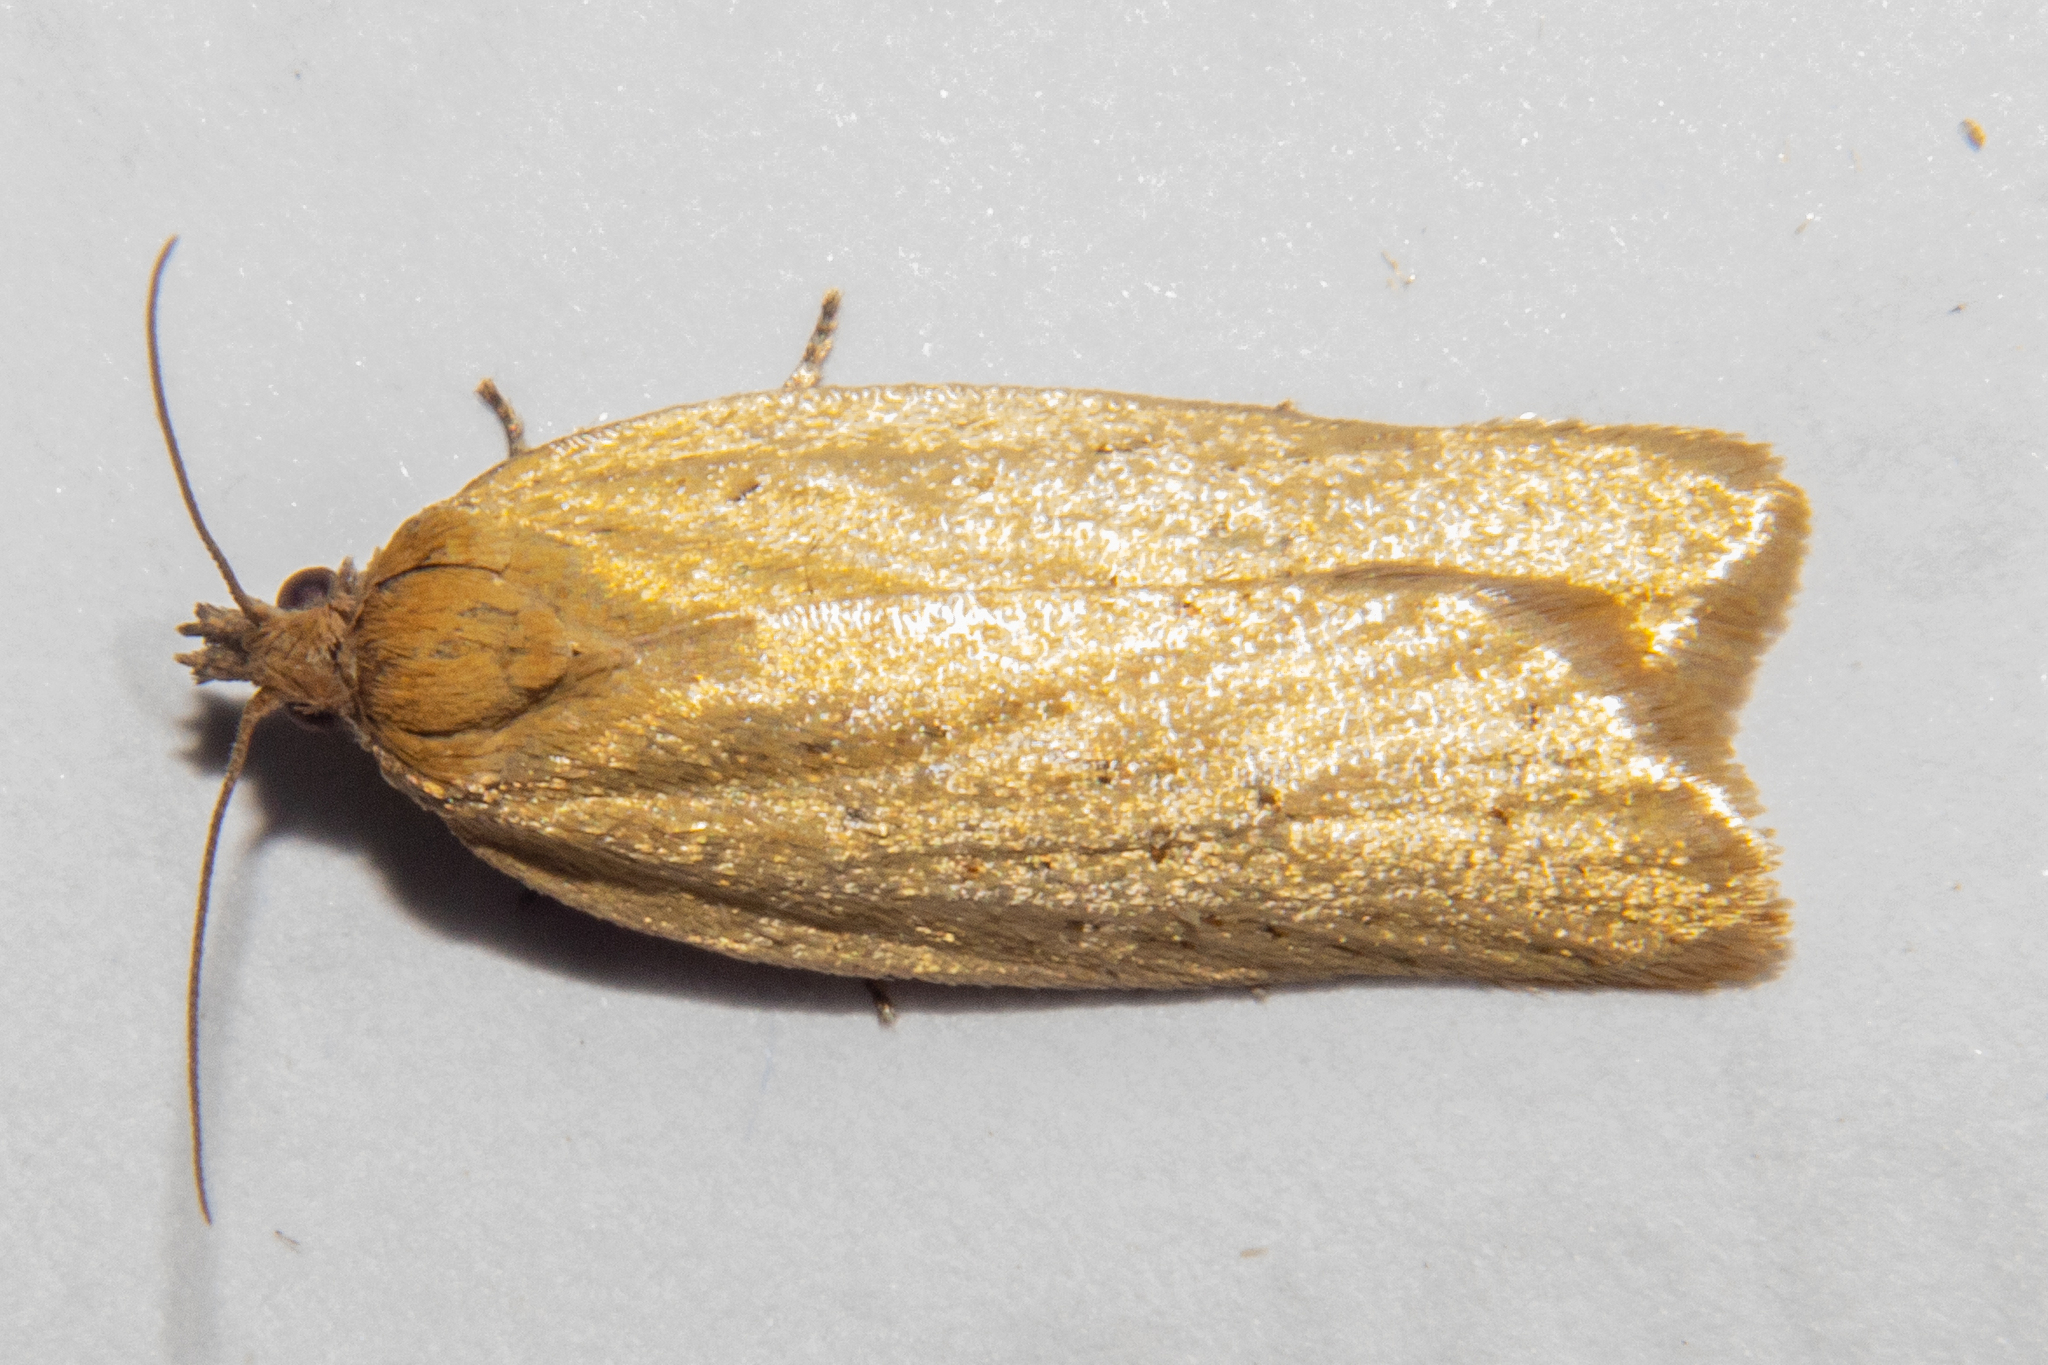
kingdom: Animalia
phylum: Arthropoda
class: Insecta
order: Lepidoptera
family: Tortricidae
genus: Clepsis
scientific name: Clepsis
